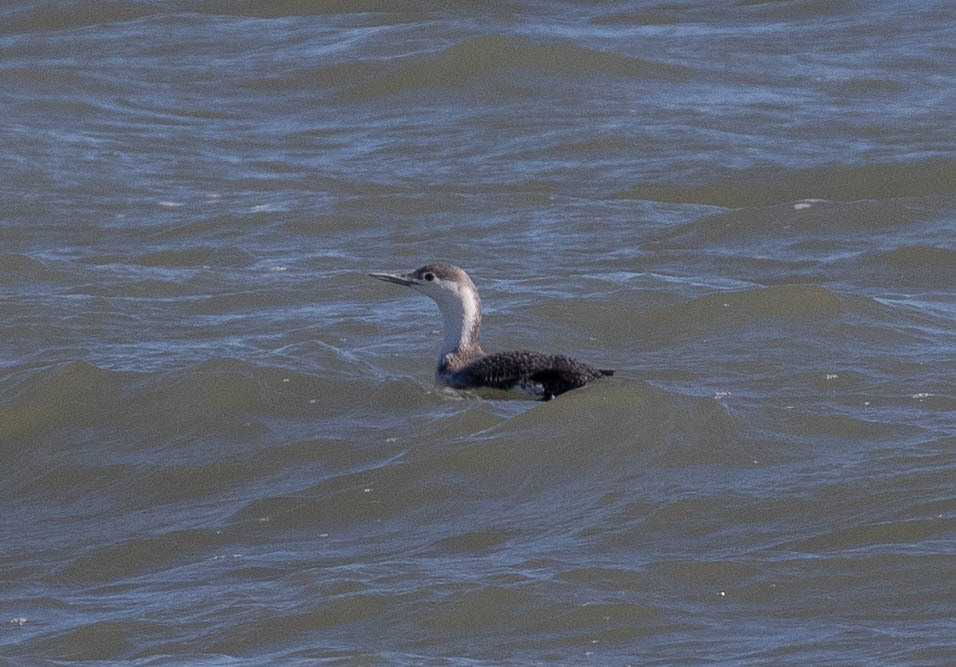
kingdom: Animalia
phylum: Chordata
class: Aves
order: Gaviiformes
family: Gaviidae
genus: Gavia
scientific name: Gavia stellata
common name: Red-throated loon
